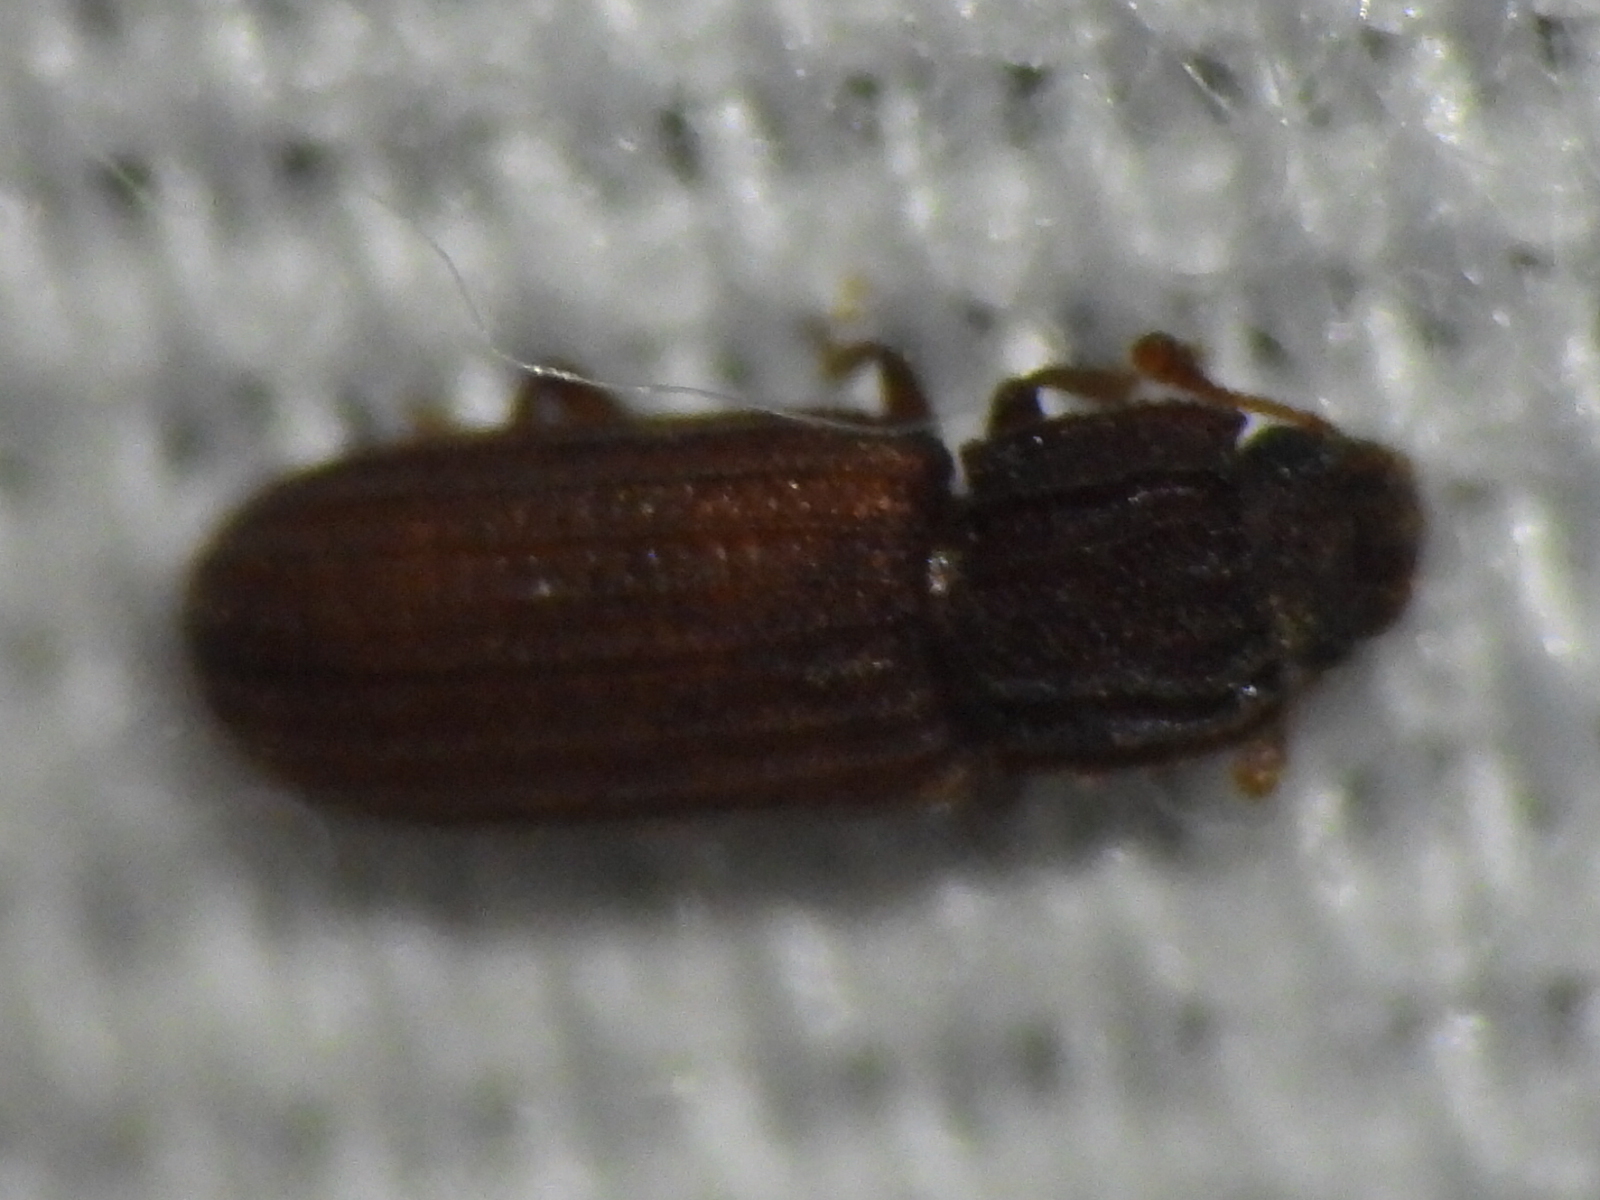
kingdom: Animalia
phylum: Arthropoda
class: Insecta
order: Coleoptera
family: Zopheridae
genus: Bitoma
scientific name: Bitoma sulcata
